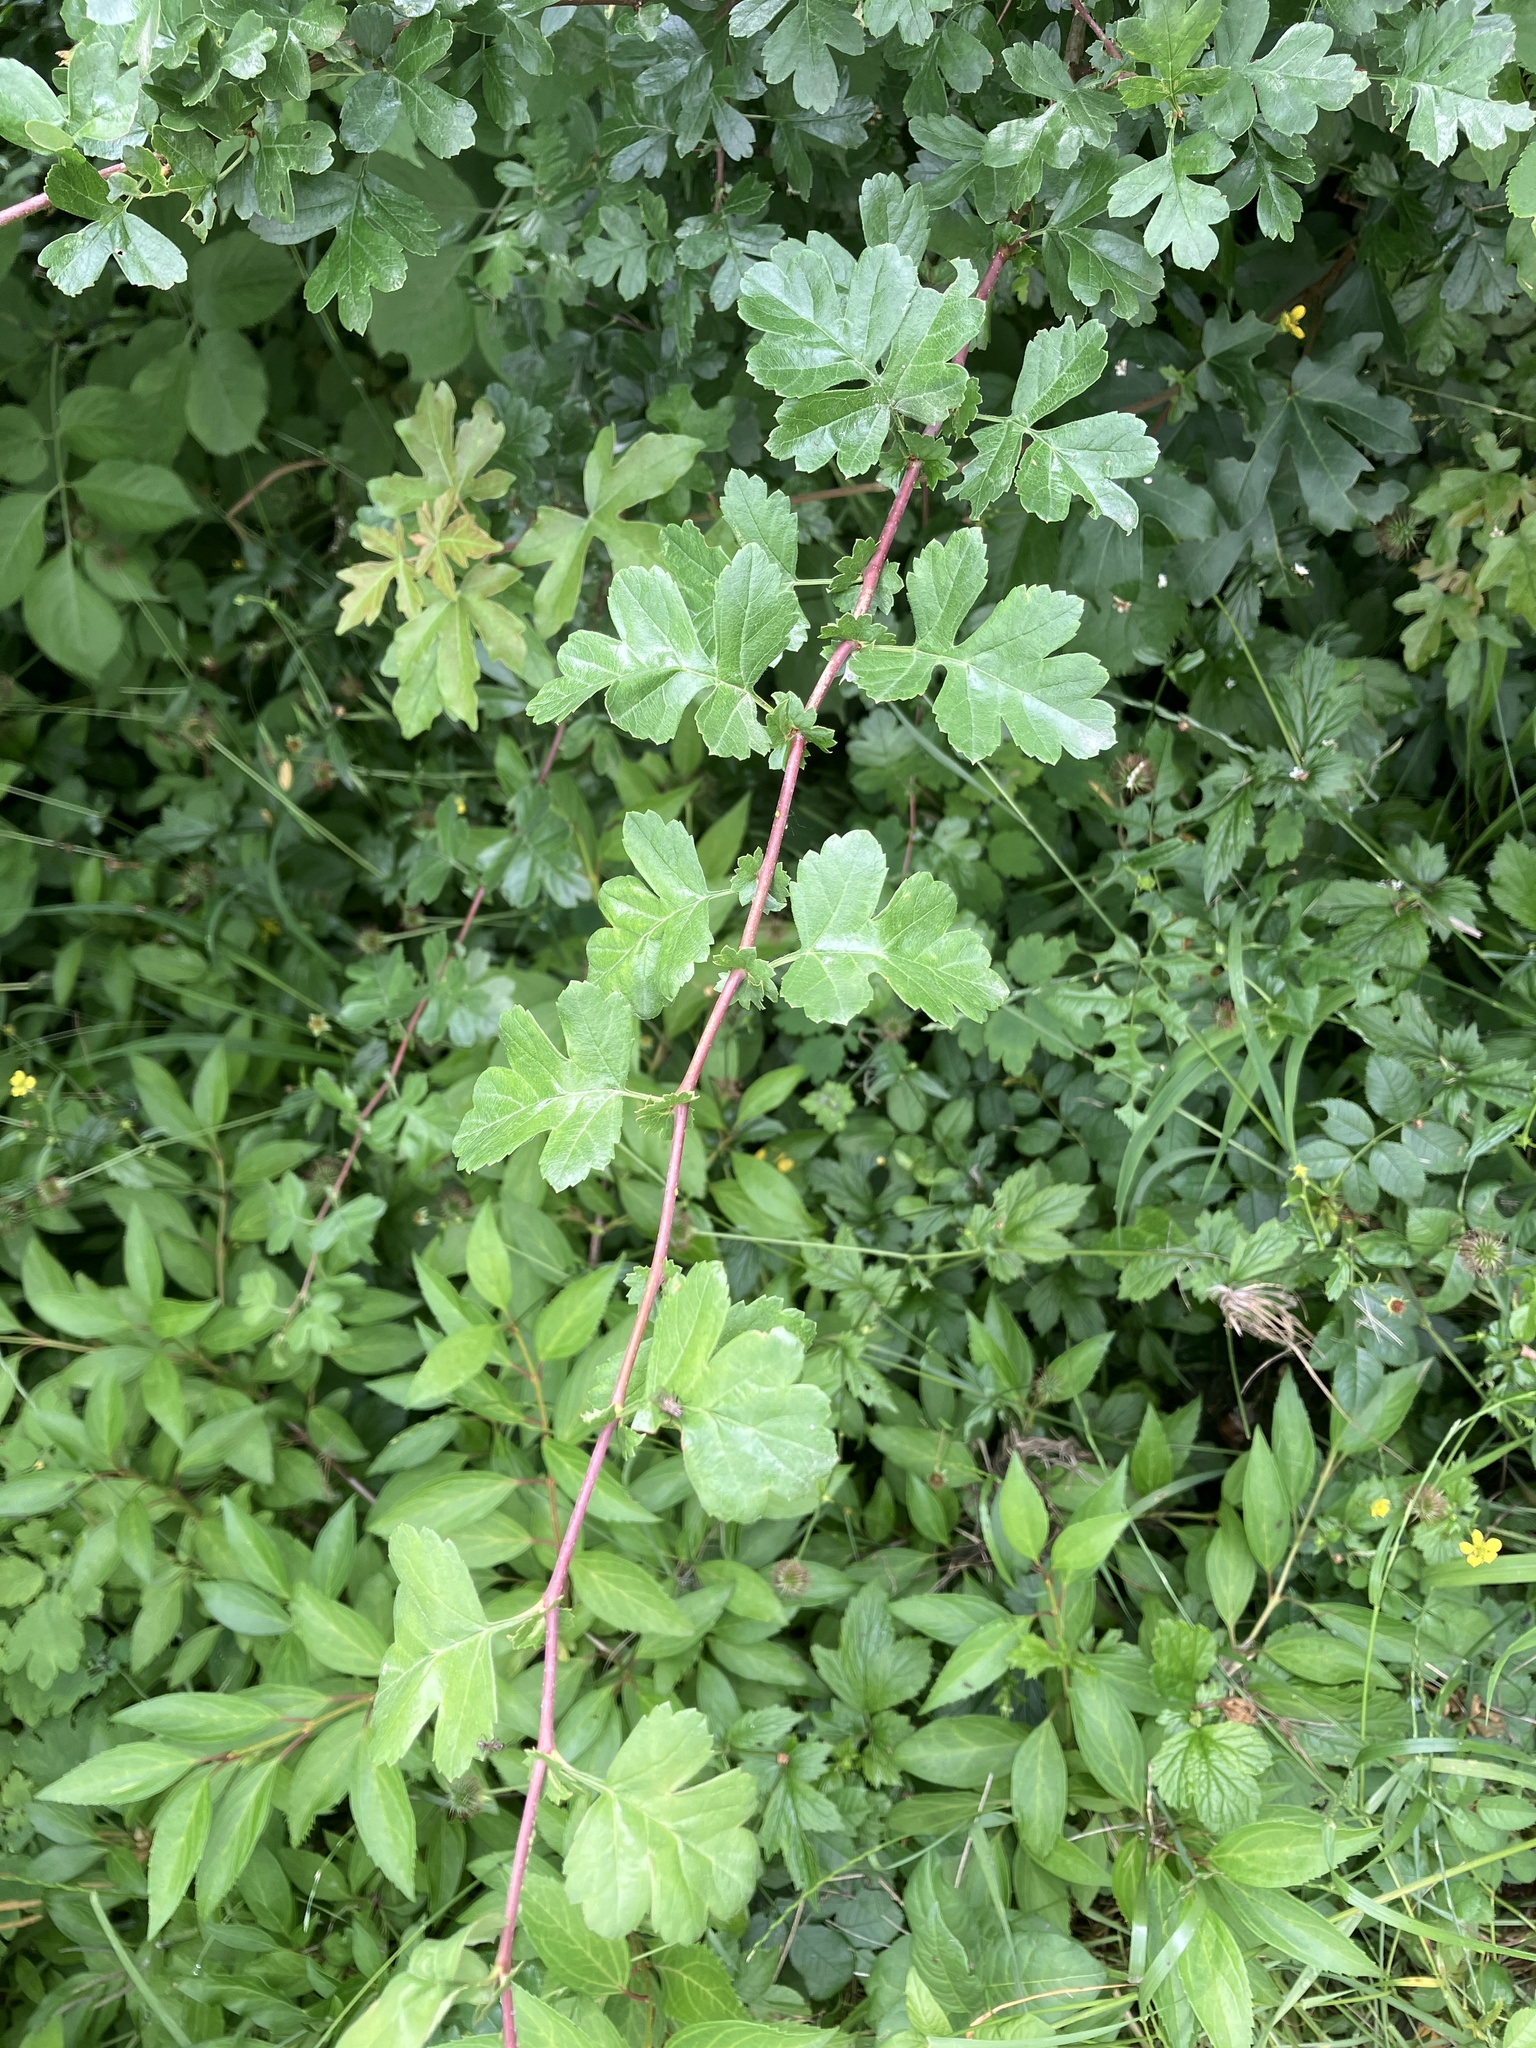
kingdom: Plantae
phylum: Tracheophyta
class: Magnoliopsida
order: Rosales
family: Rosaceae
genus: Crataegus
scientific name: Crataegus monogyna
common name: Hawthorn
